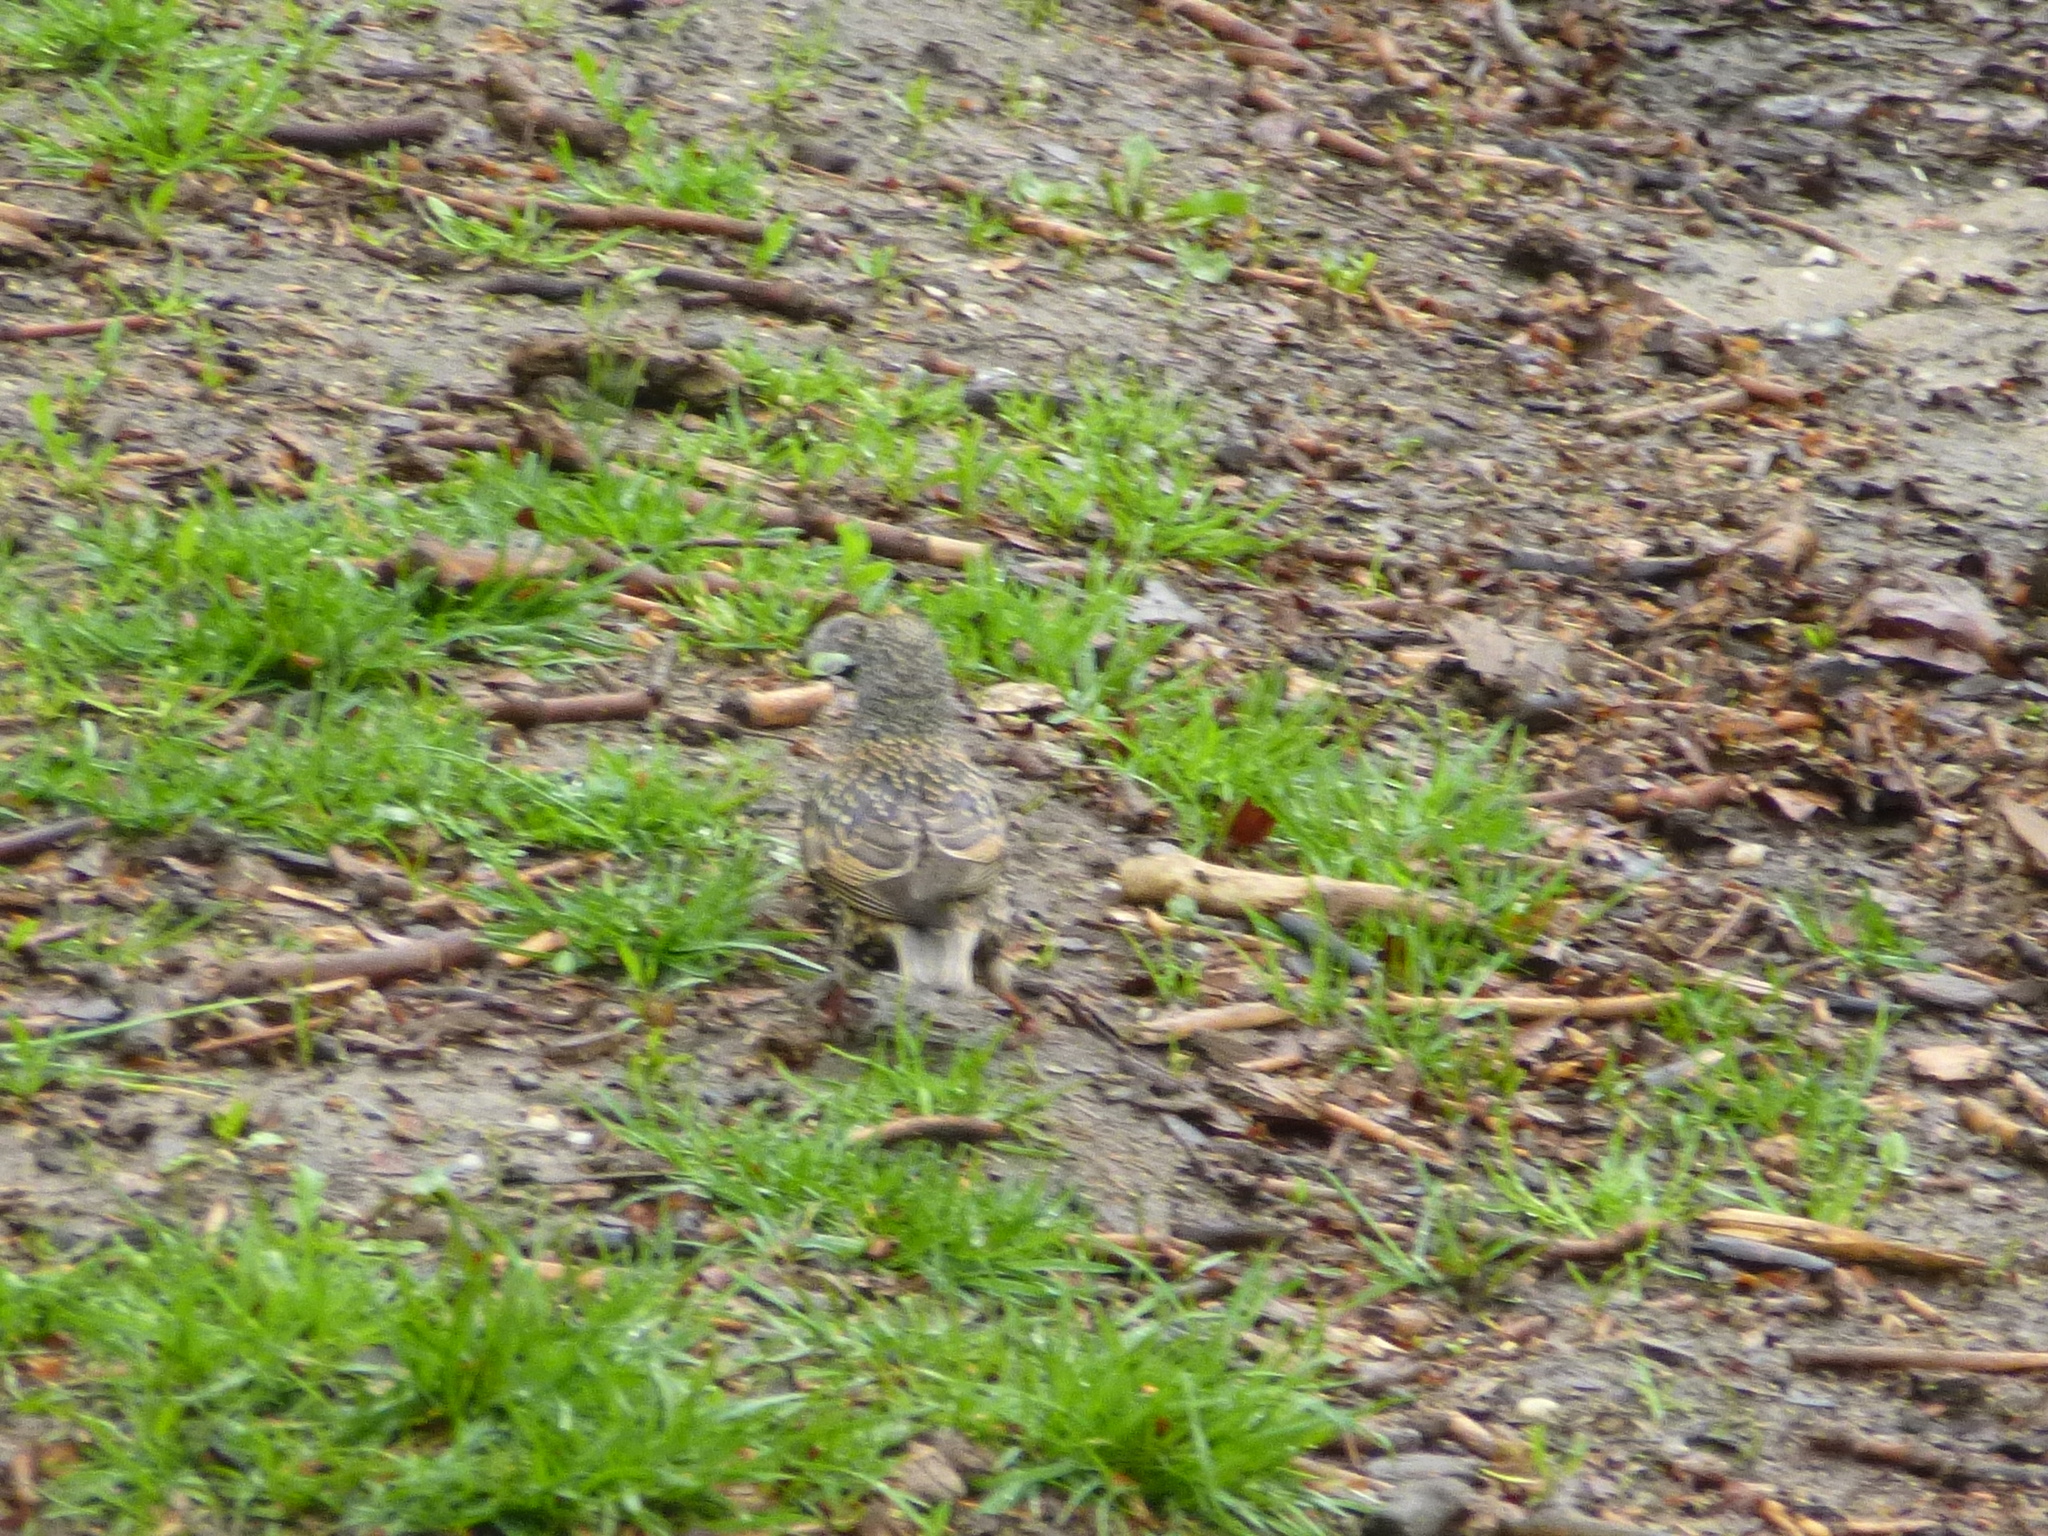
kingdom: Animalia
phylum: Chordata
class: Aves
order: Passeriformes
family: Sturnidae
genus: Sturnus
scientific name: Sturnus vulgaris
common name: Common starling
